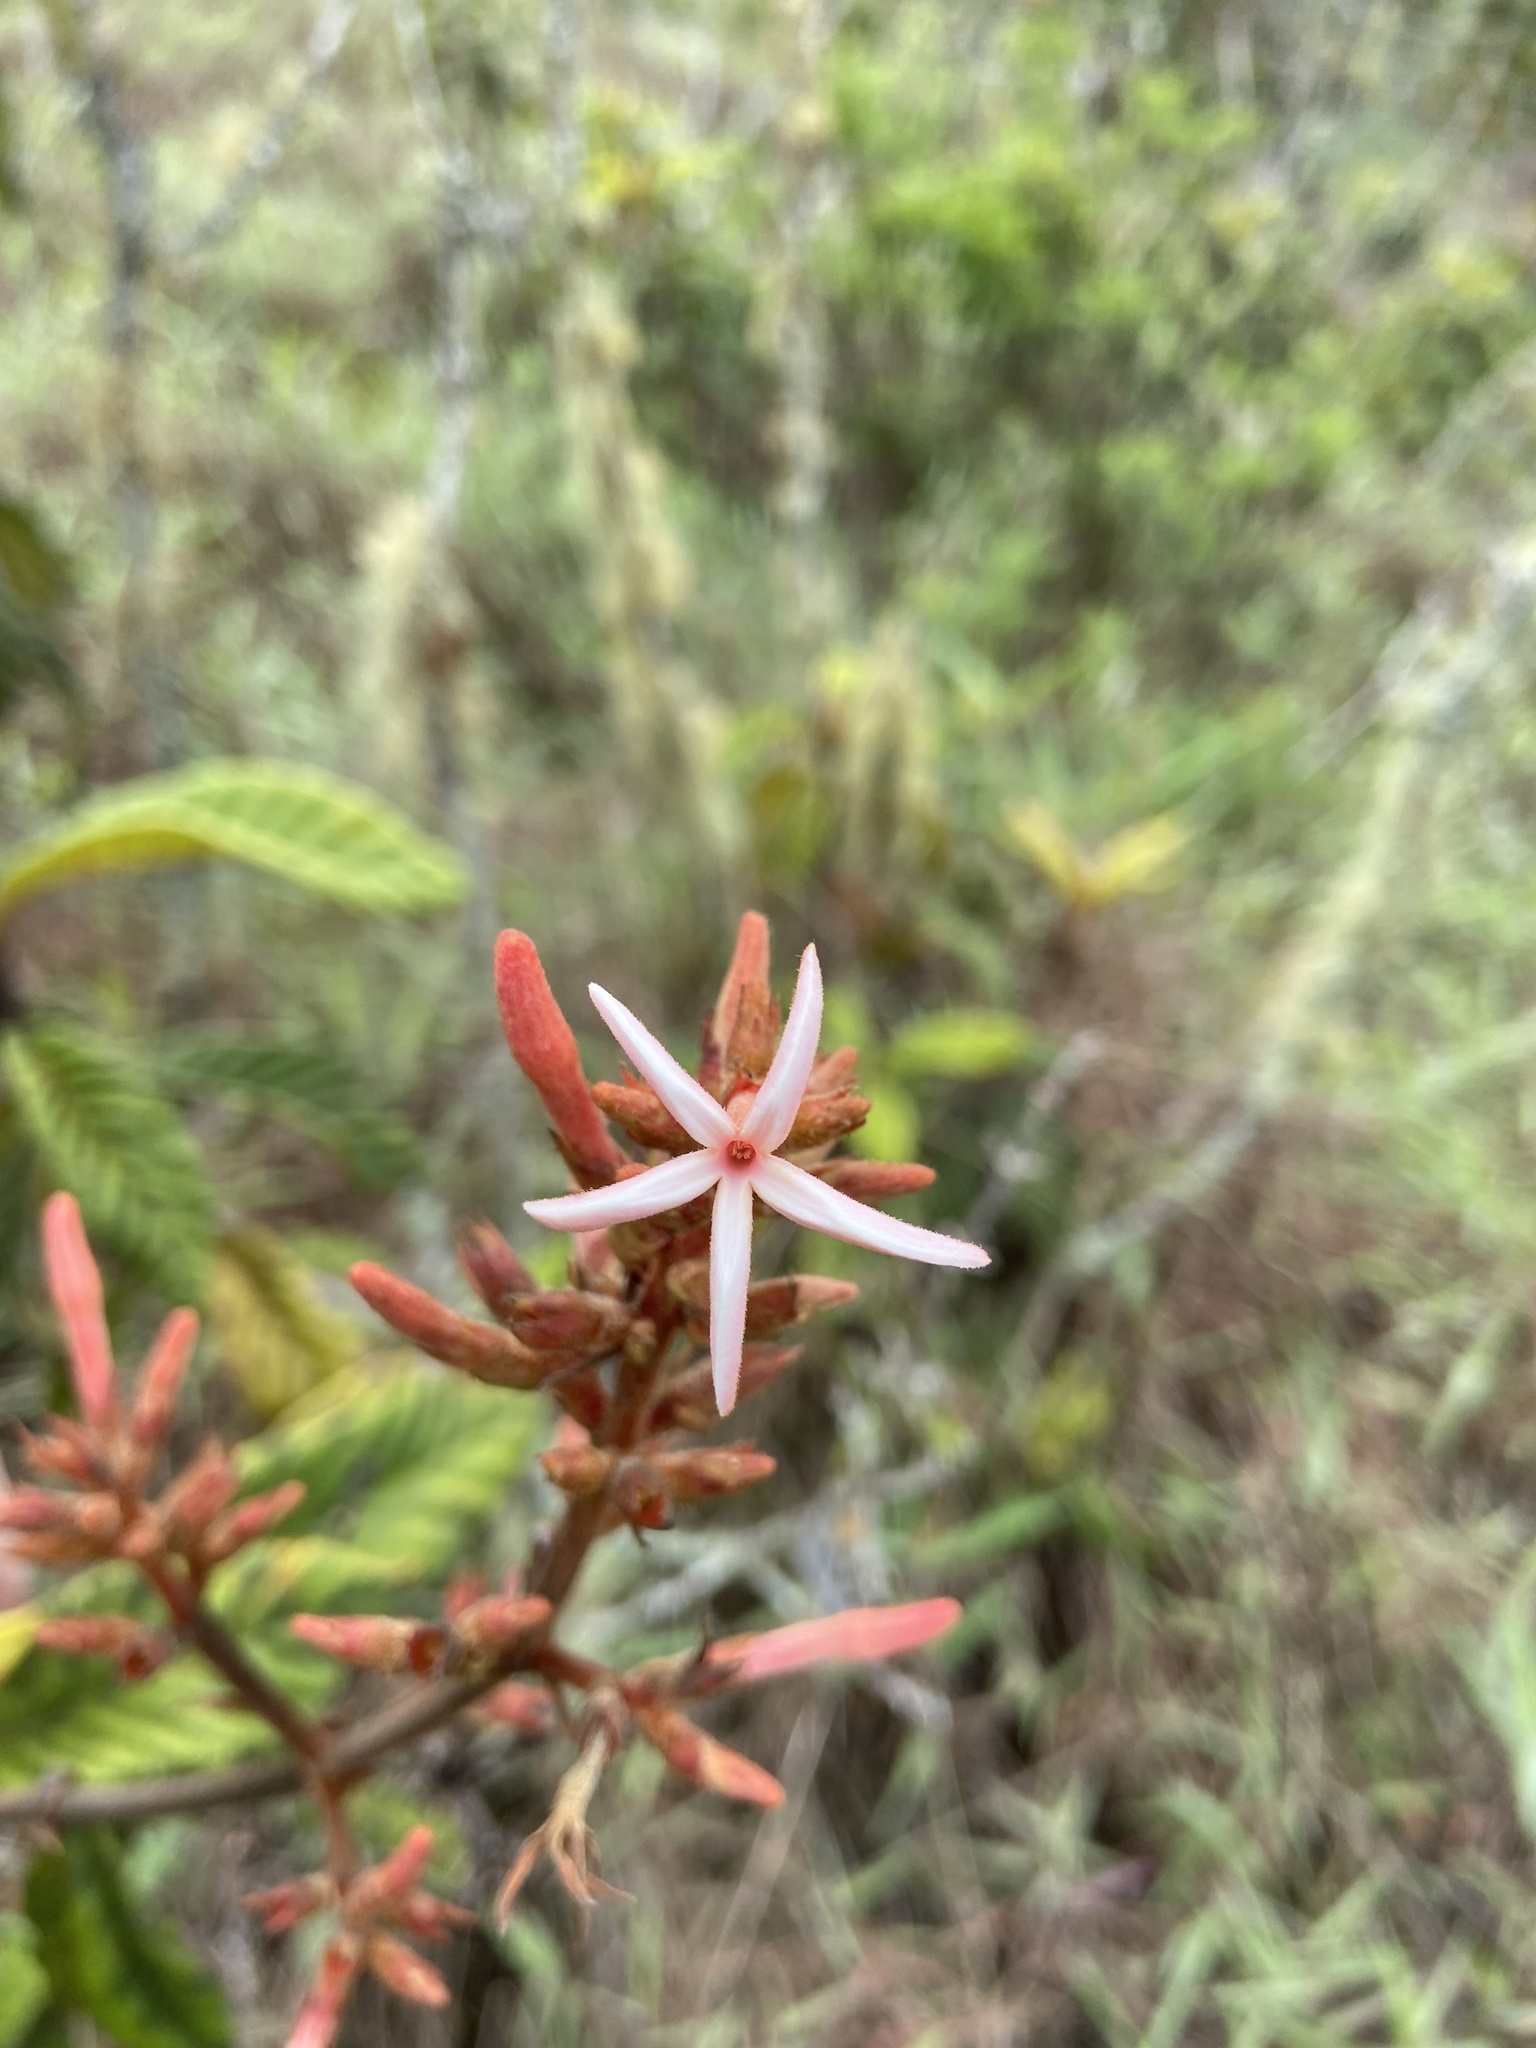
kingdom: Plantae
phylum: Tracheophyta
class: Magnoliopsida
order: Gentianales
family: Rubiaceae
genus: Remijia
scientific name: Remijia ferruginea
